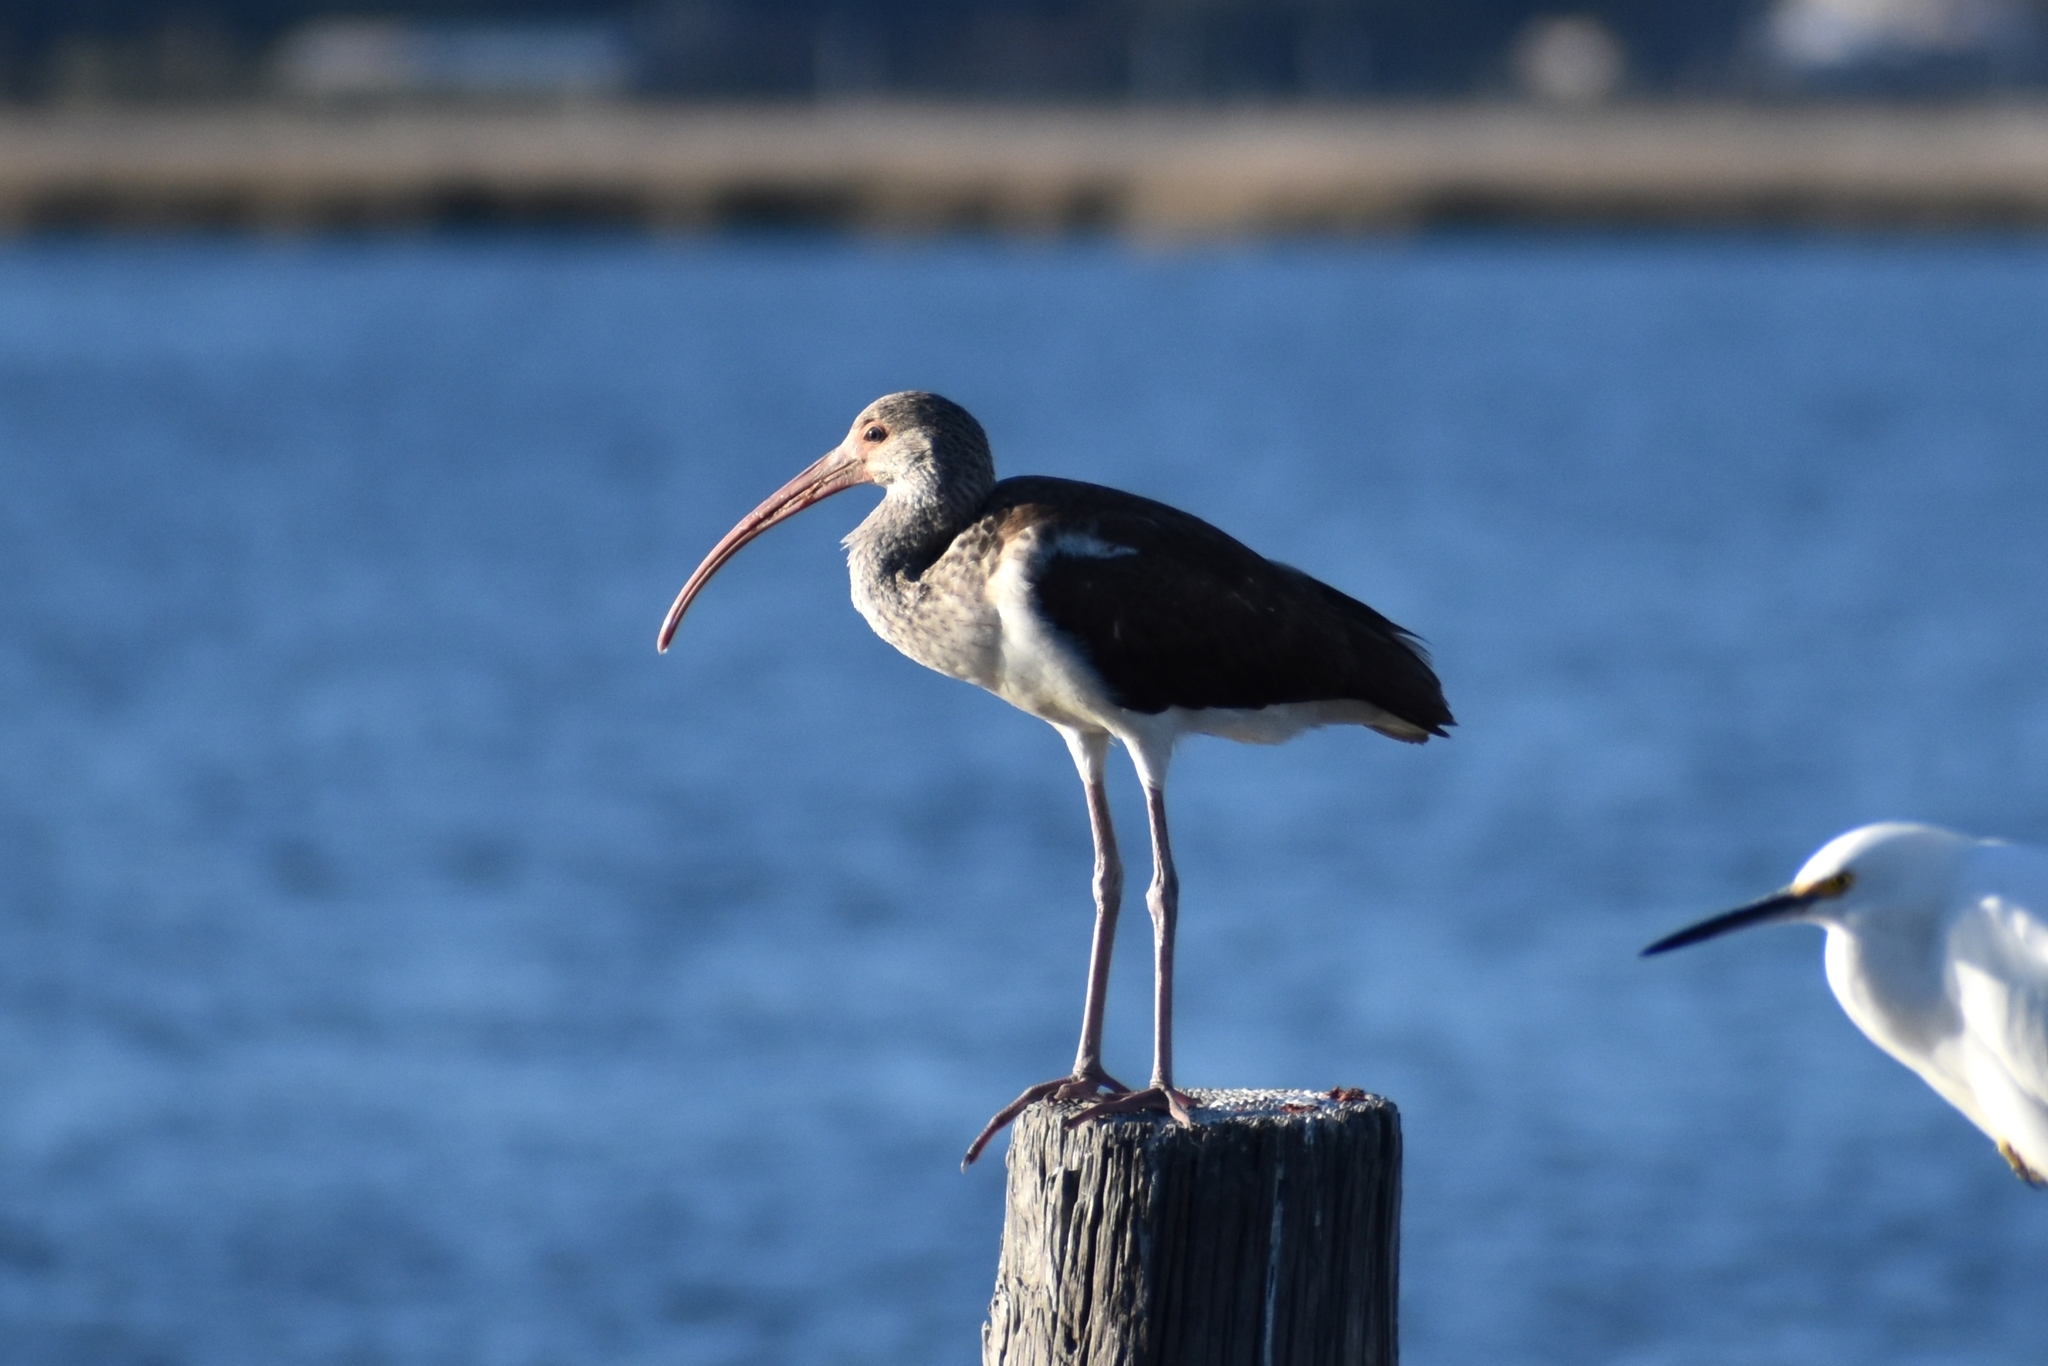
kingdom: Animalia
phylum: Chordata
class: Aves
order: Pelecaniformes
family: Threskiornithidae
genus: Eudocimus
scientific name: Eudocimus albus
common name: White ibis
